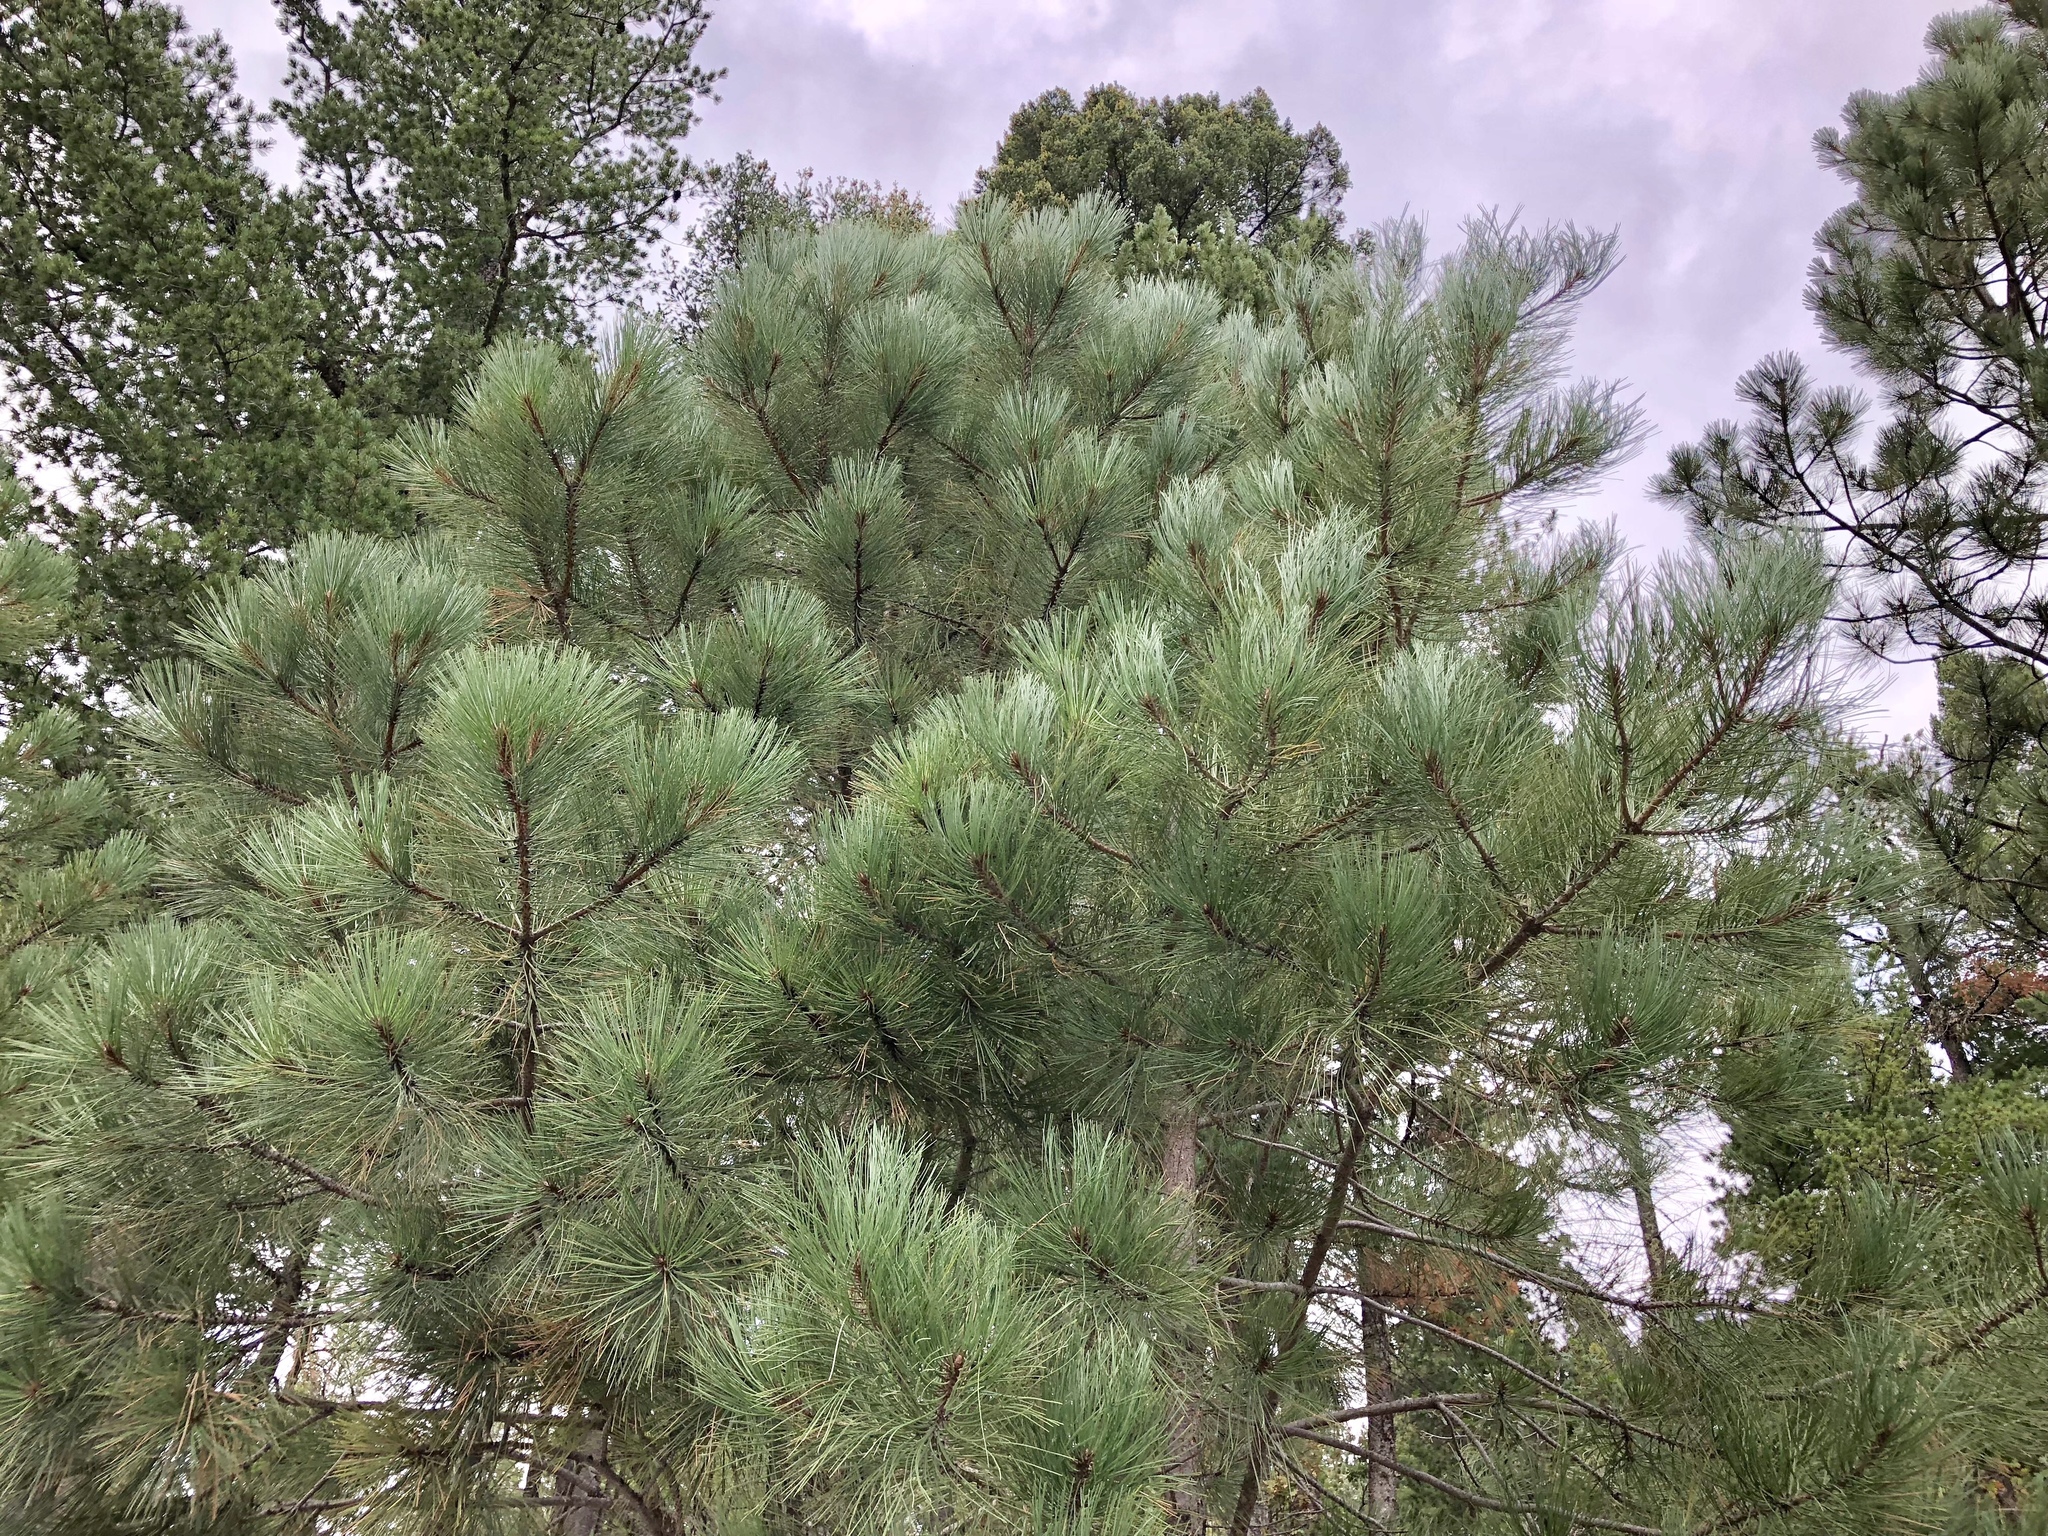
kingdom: Plantae
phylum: Tracheophyta
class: Pinopsida
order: Pinales
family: Pinaceae
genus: Pinus
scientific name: Pinus ponderosa
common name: Western yellow-pine
